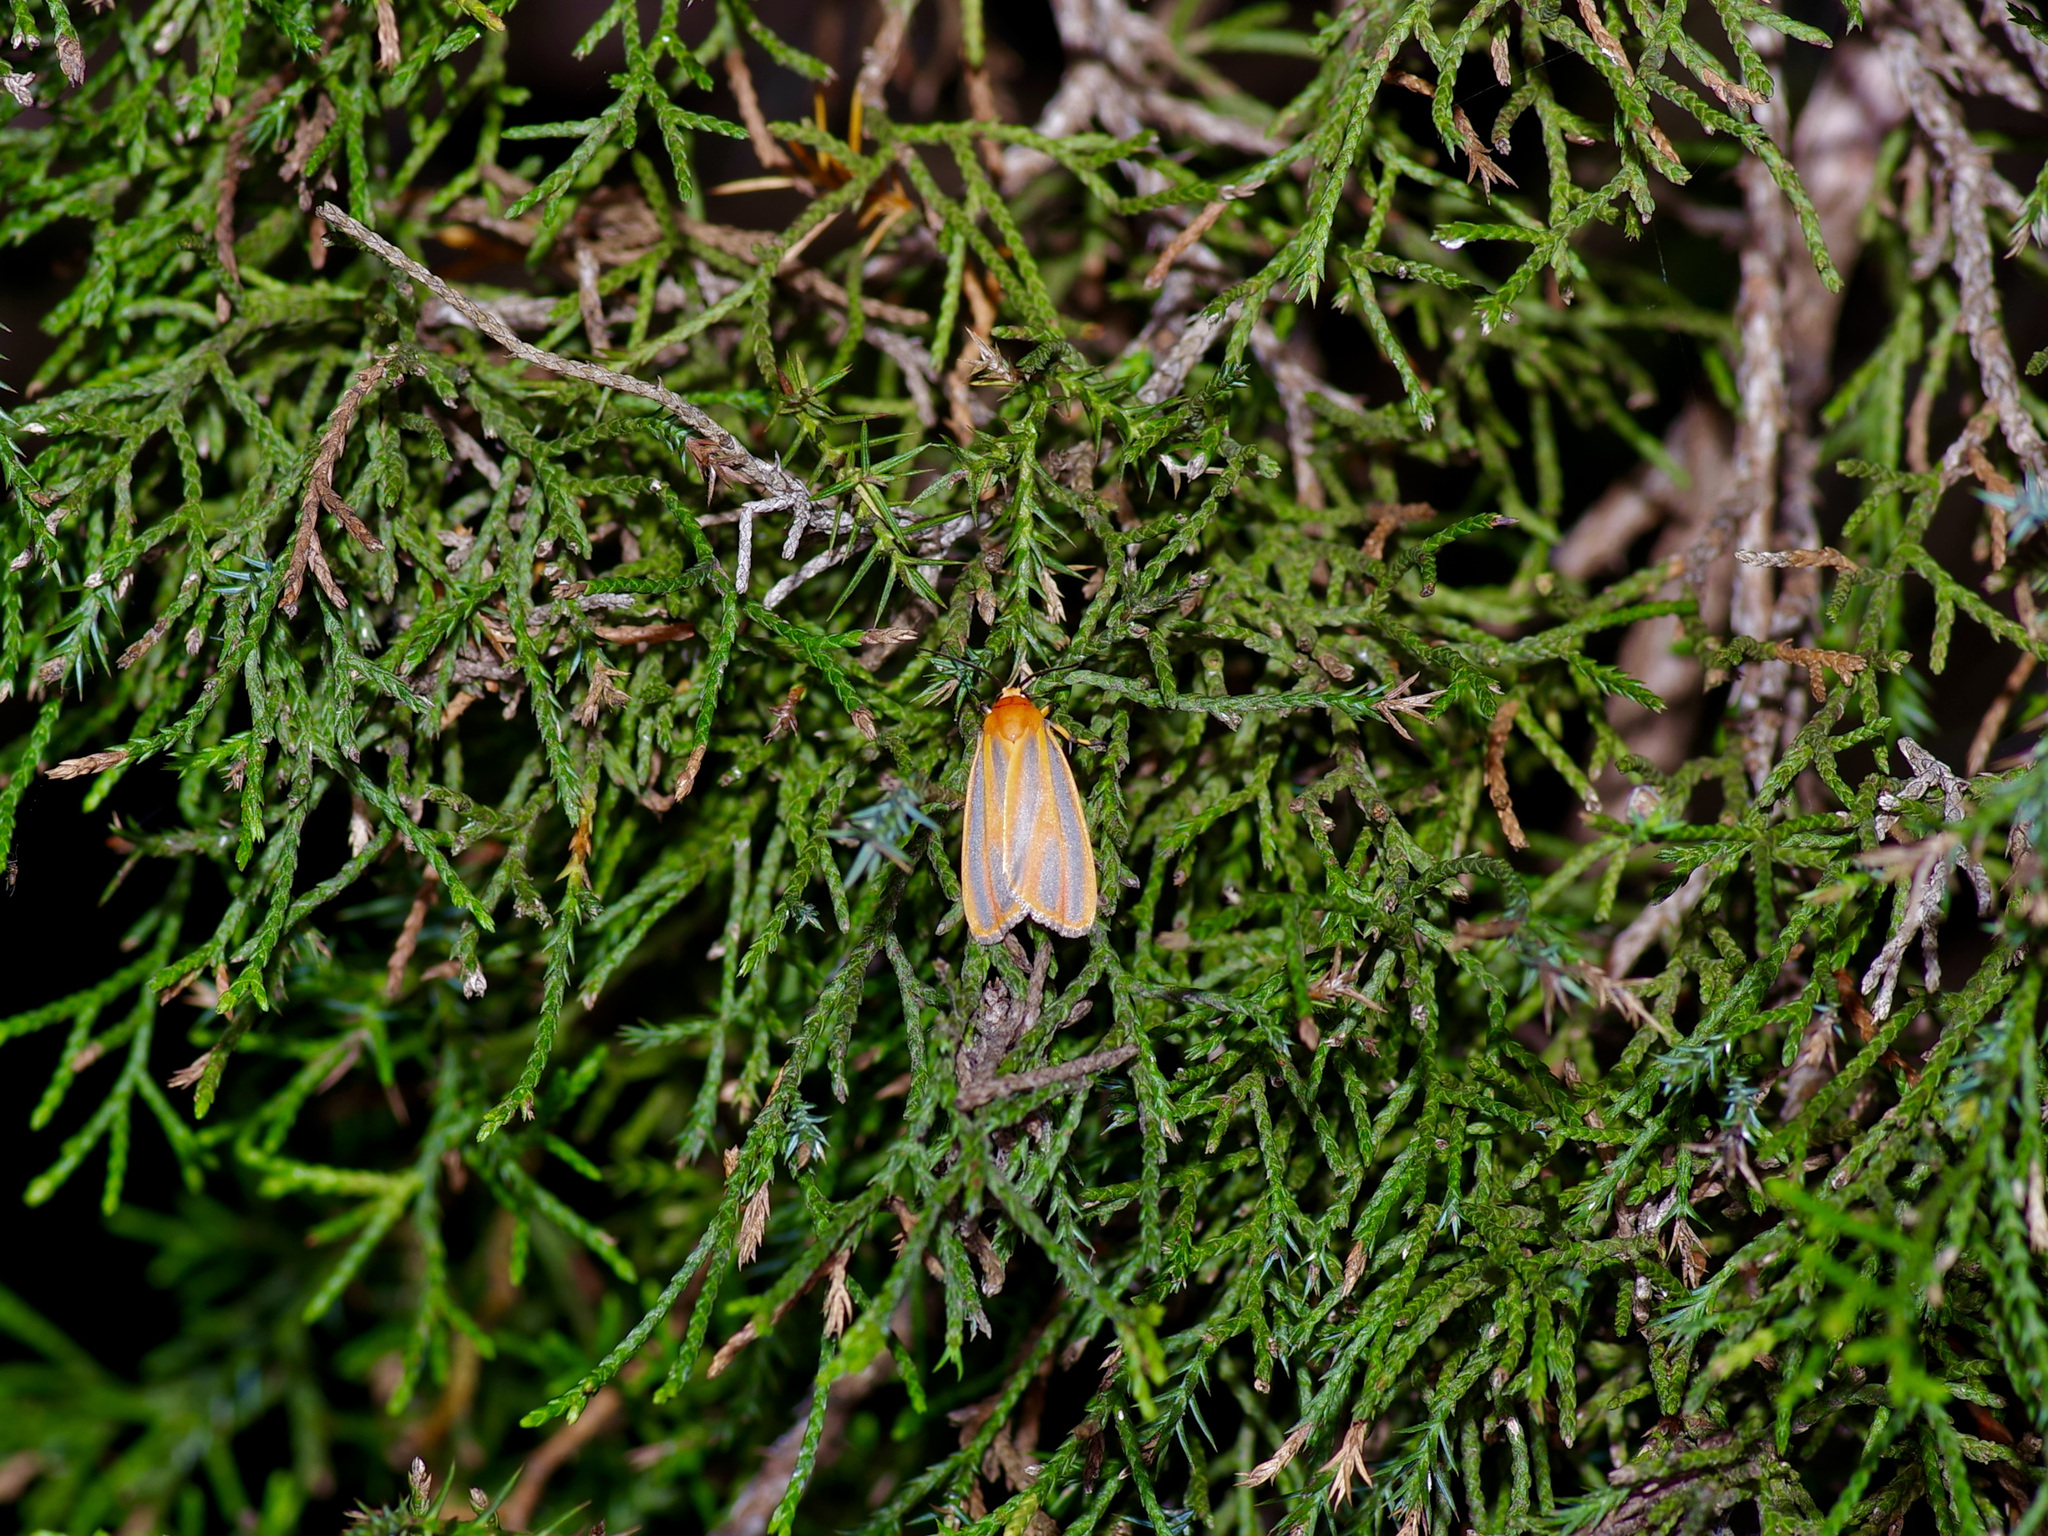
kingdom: Animalia
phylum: Arthropoda
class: Insecta
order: Lepidoptera
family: Erebidae
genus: Hypoprepia
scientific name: Hypoprepia fucosa
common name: Painted lichen moth
